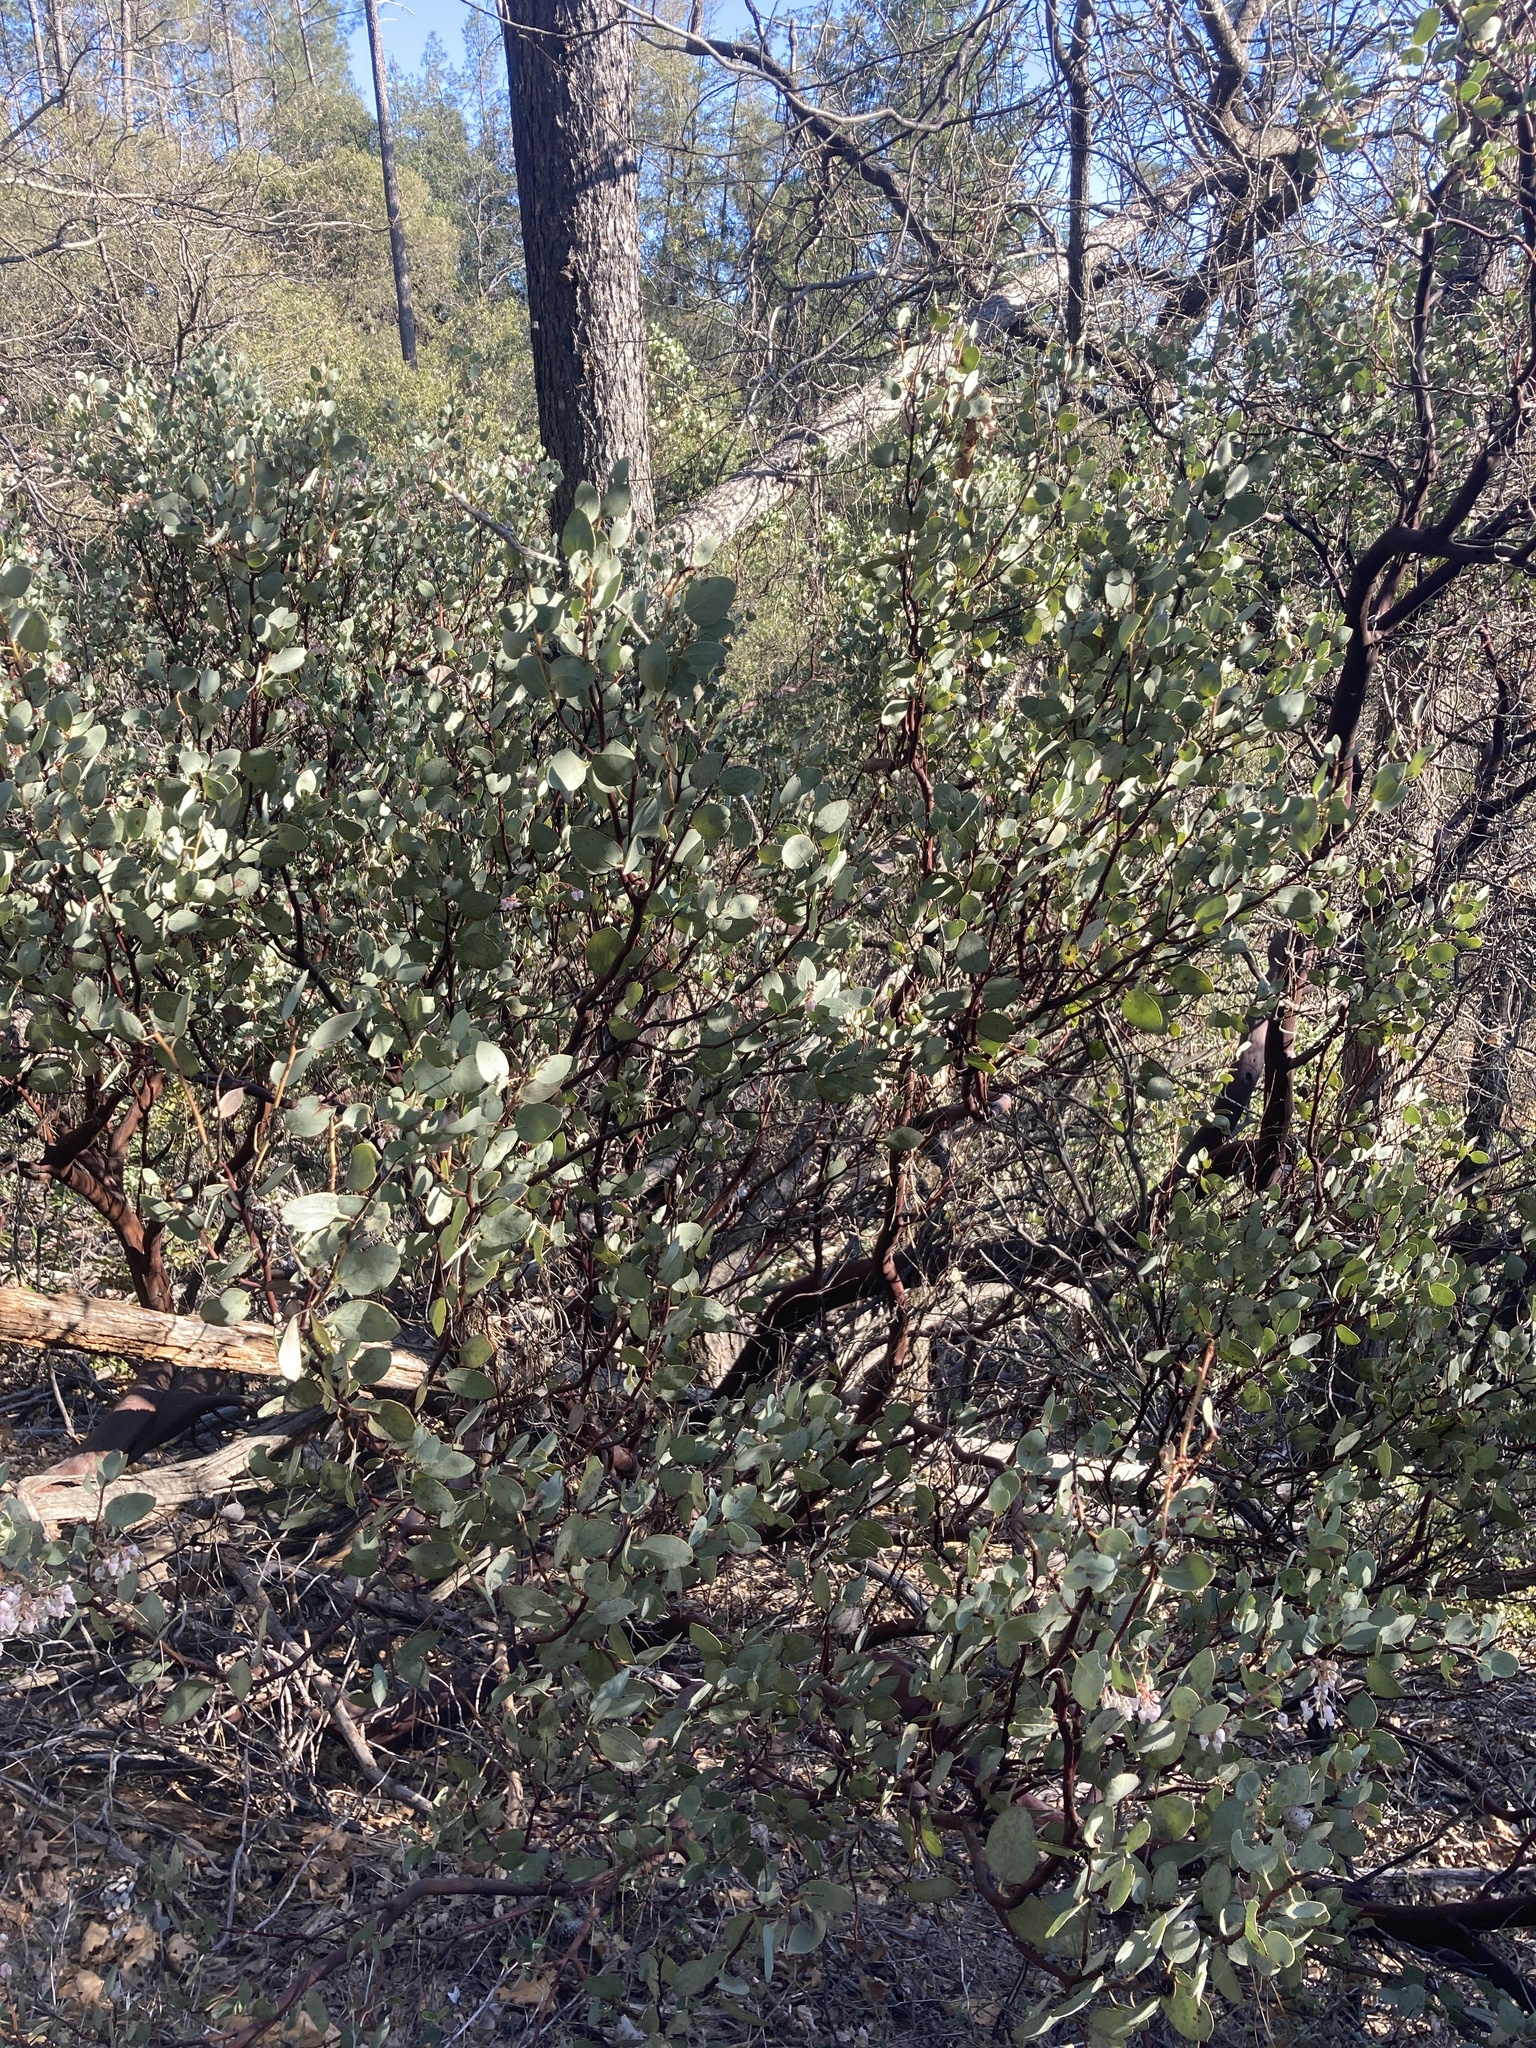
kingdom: Plantae
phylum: Tracheophyta
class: Magnoliopsida
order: Ericales
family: Ericaceae
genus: Arctostaphylos
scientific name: Arctostaphylos viscida
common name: White-leaf manzanita
